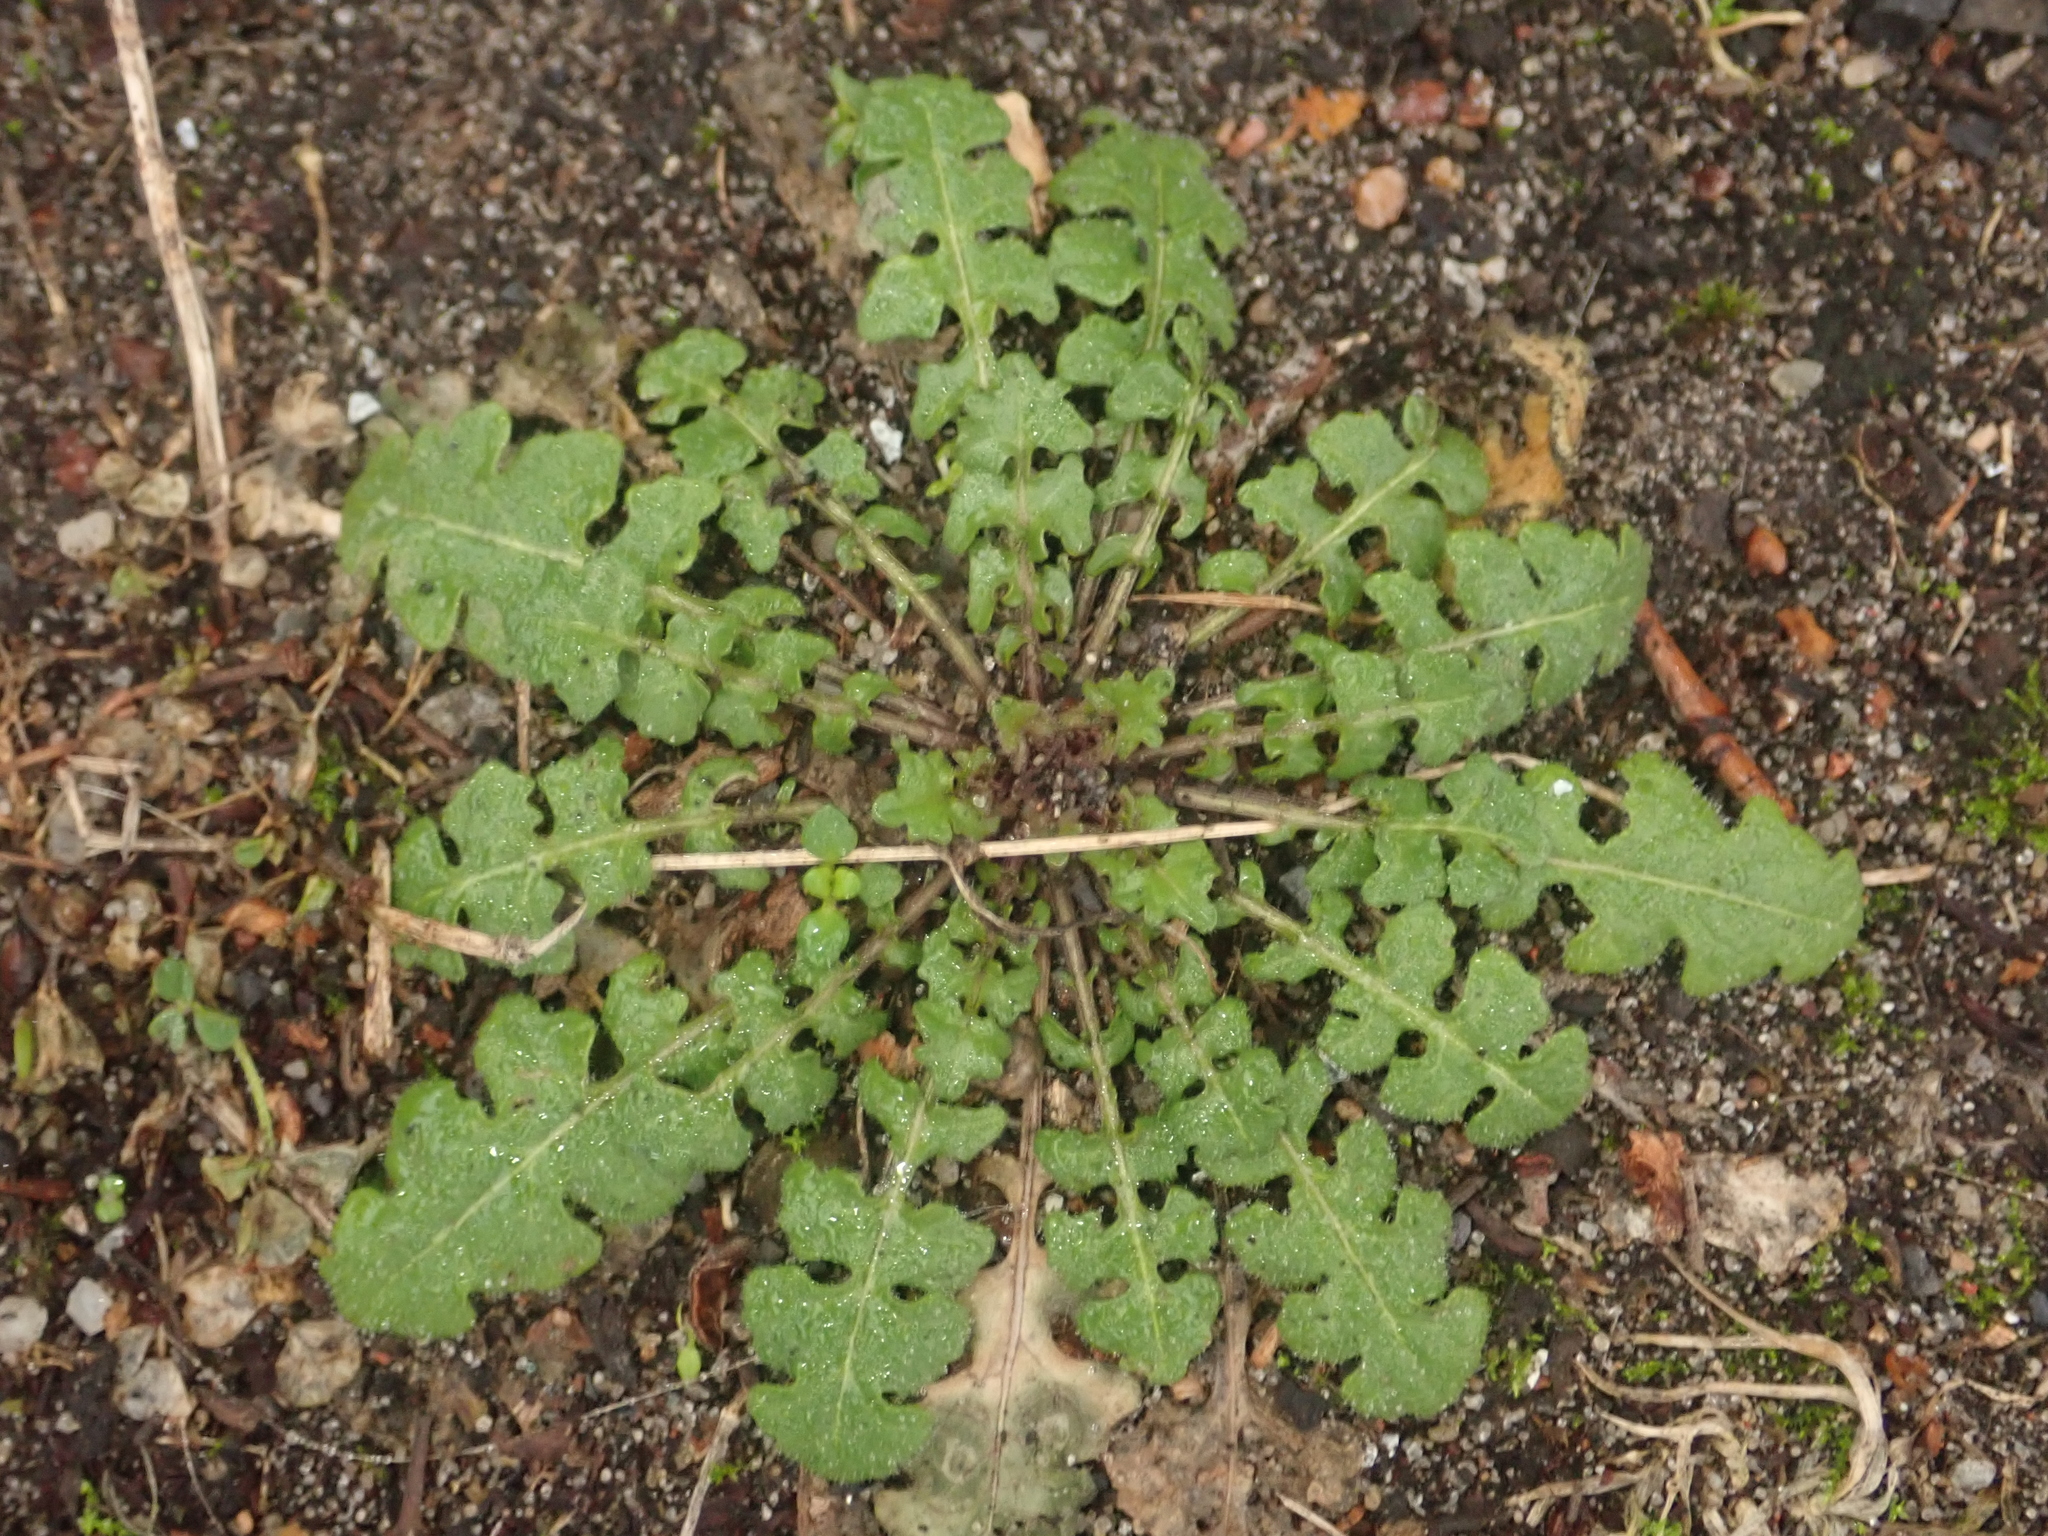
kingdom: Plantae
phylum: Tracheophyta
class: Magnoliopsida
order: Brassicales
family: Brassicaceae
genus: Arabidopsis
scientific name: Arabidopsis arenosa
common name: Sand rock-cress
